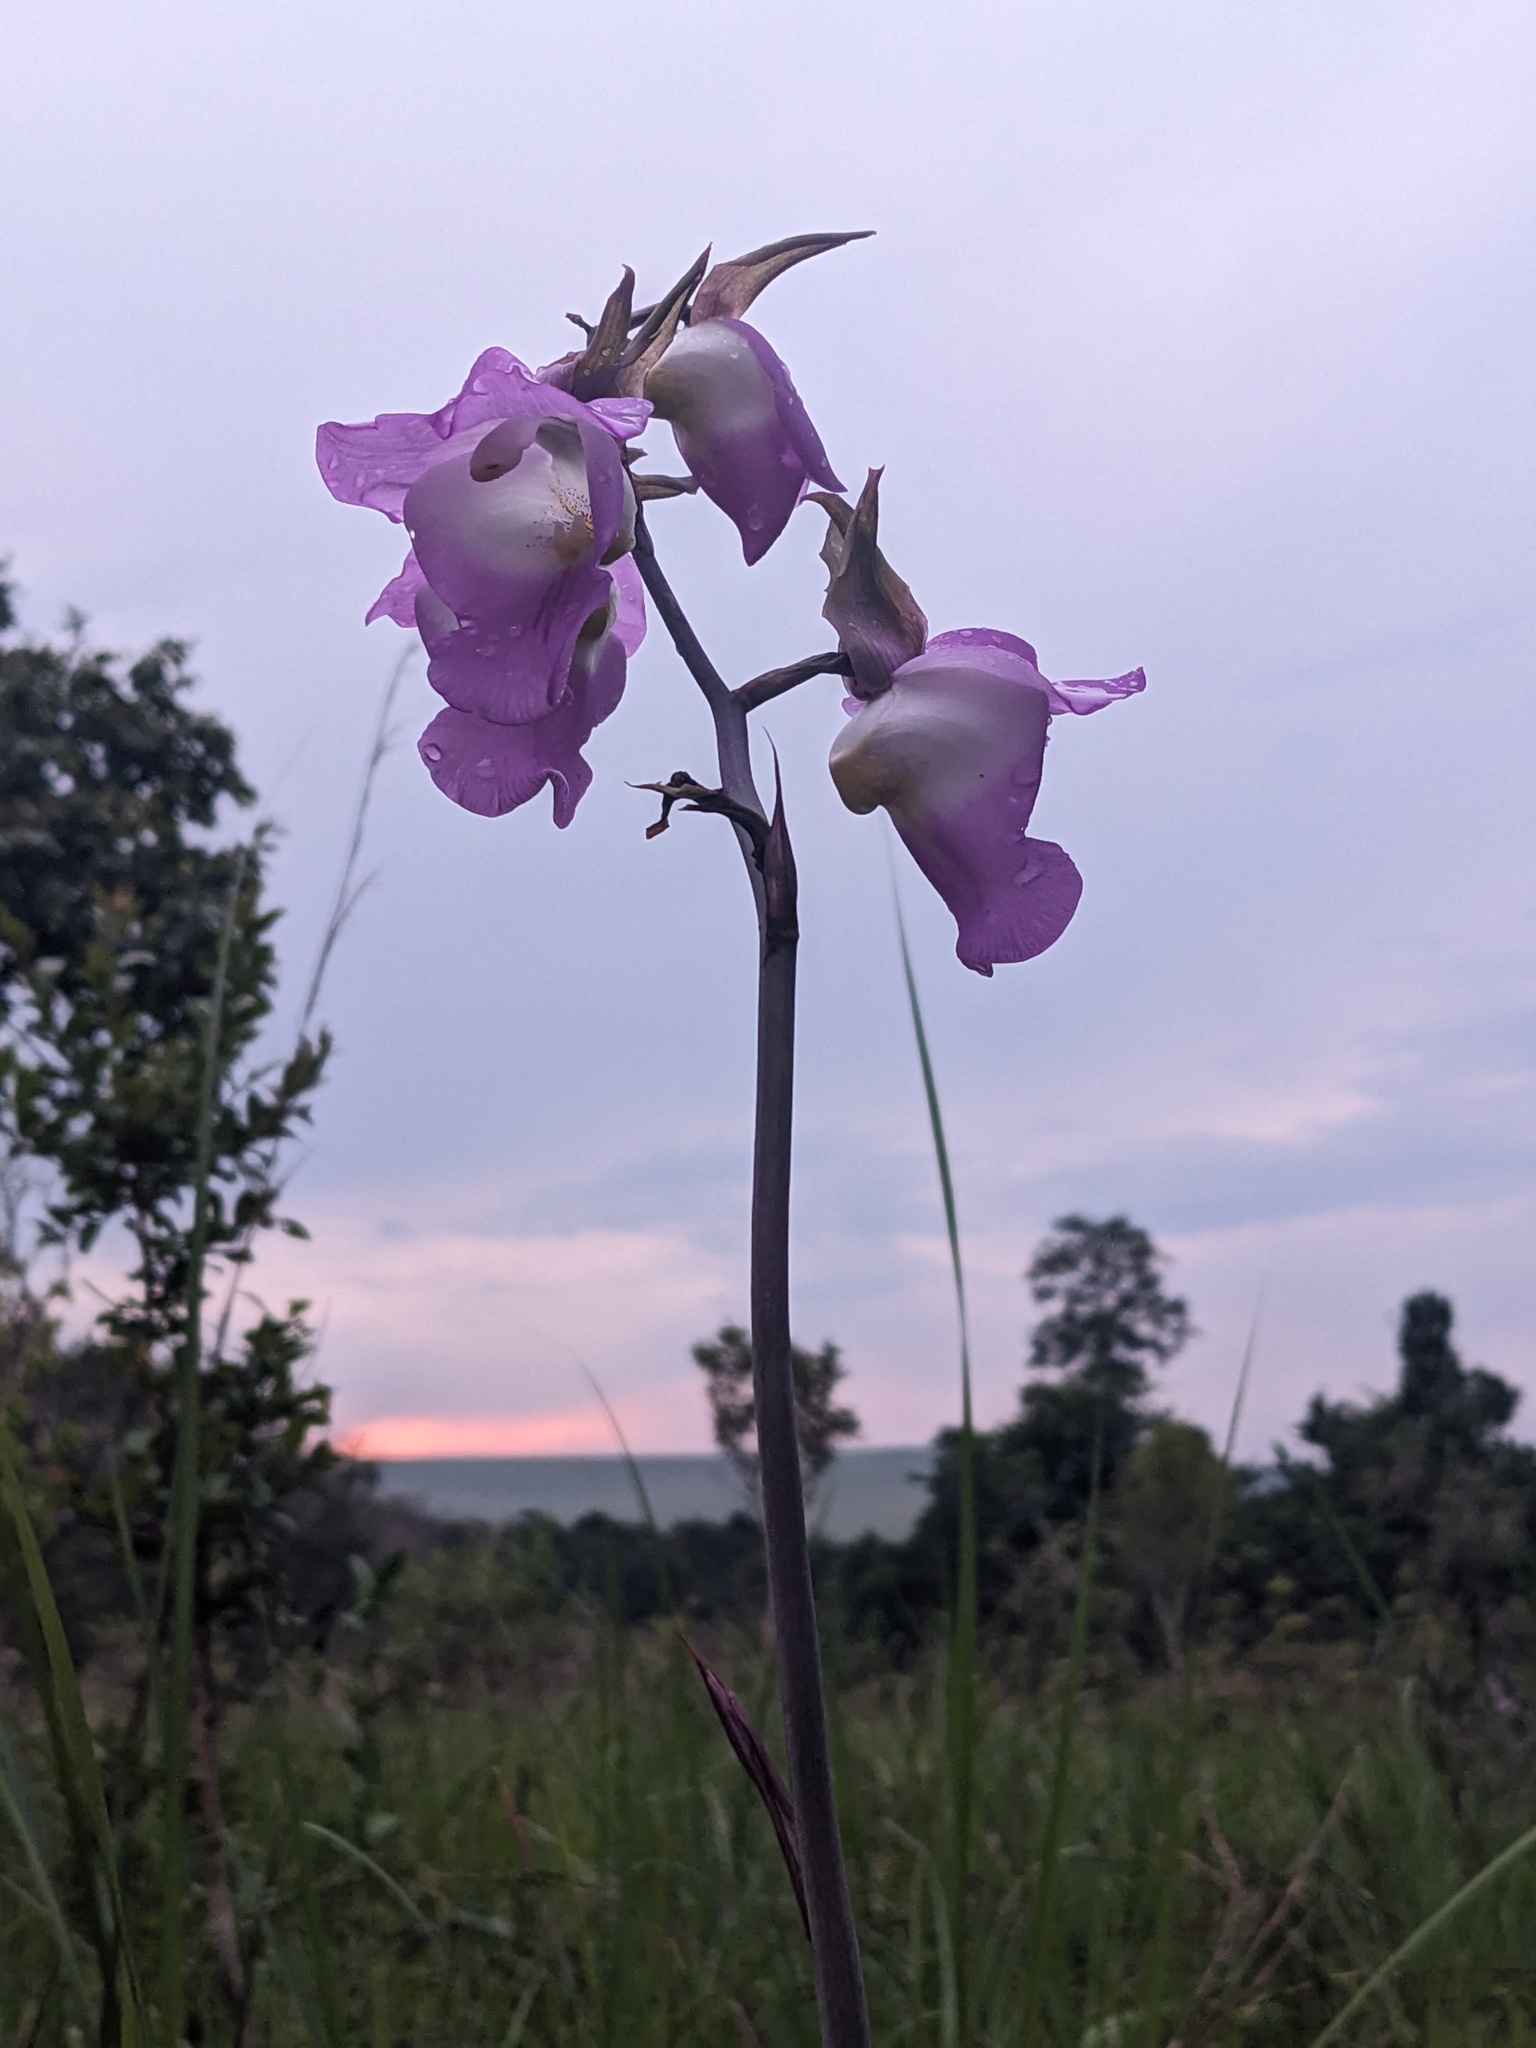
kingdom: Plantae
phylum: Tracheophyta
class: Liliopsida
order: Asparagales
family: Orchidaceae
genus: Eulophia
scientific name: Eulophia cucullata
